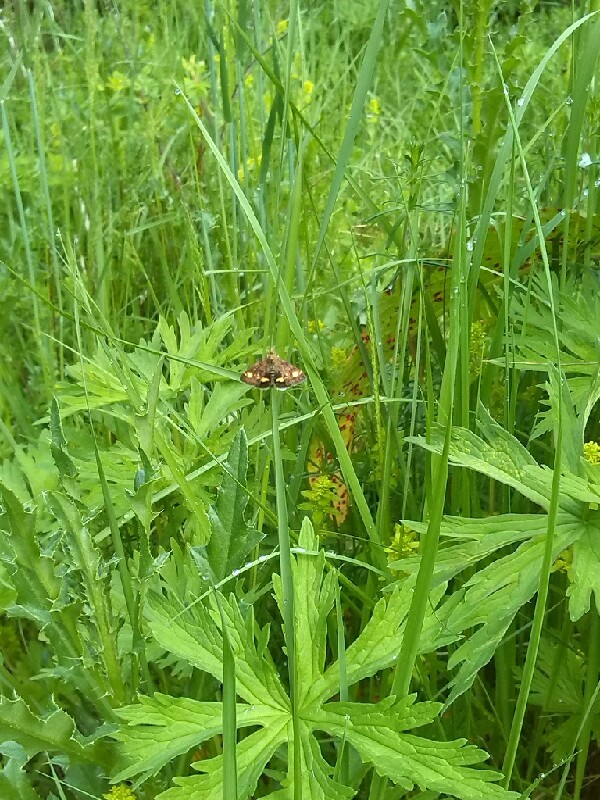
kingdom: Animalia
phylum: Arthropoda
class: Insecta
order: Lepidoptera
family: Crambidae
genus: Pyrausta
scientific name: Pyrausta aurata
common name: Small purple & gold
